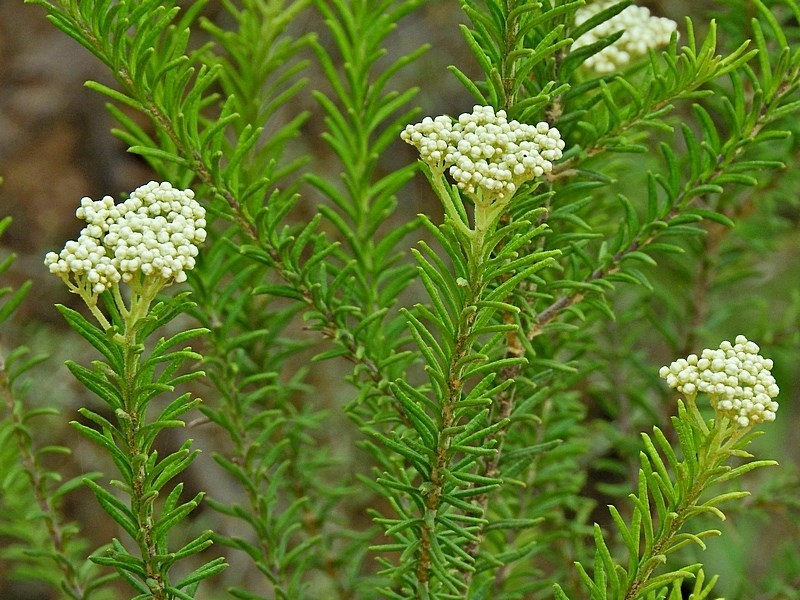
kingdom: Plantae
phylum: Tracheophyta
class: Magnoliopsida
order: Asterales
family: Asteraceae
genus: Ozothamnus
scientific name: Ozothamnus diosmifolius
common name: White-dogwood
